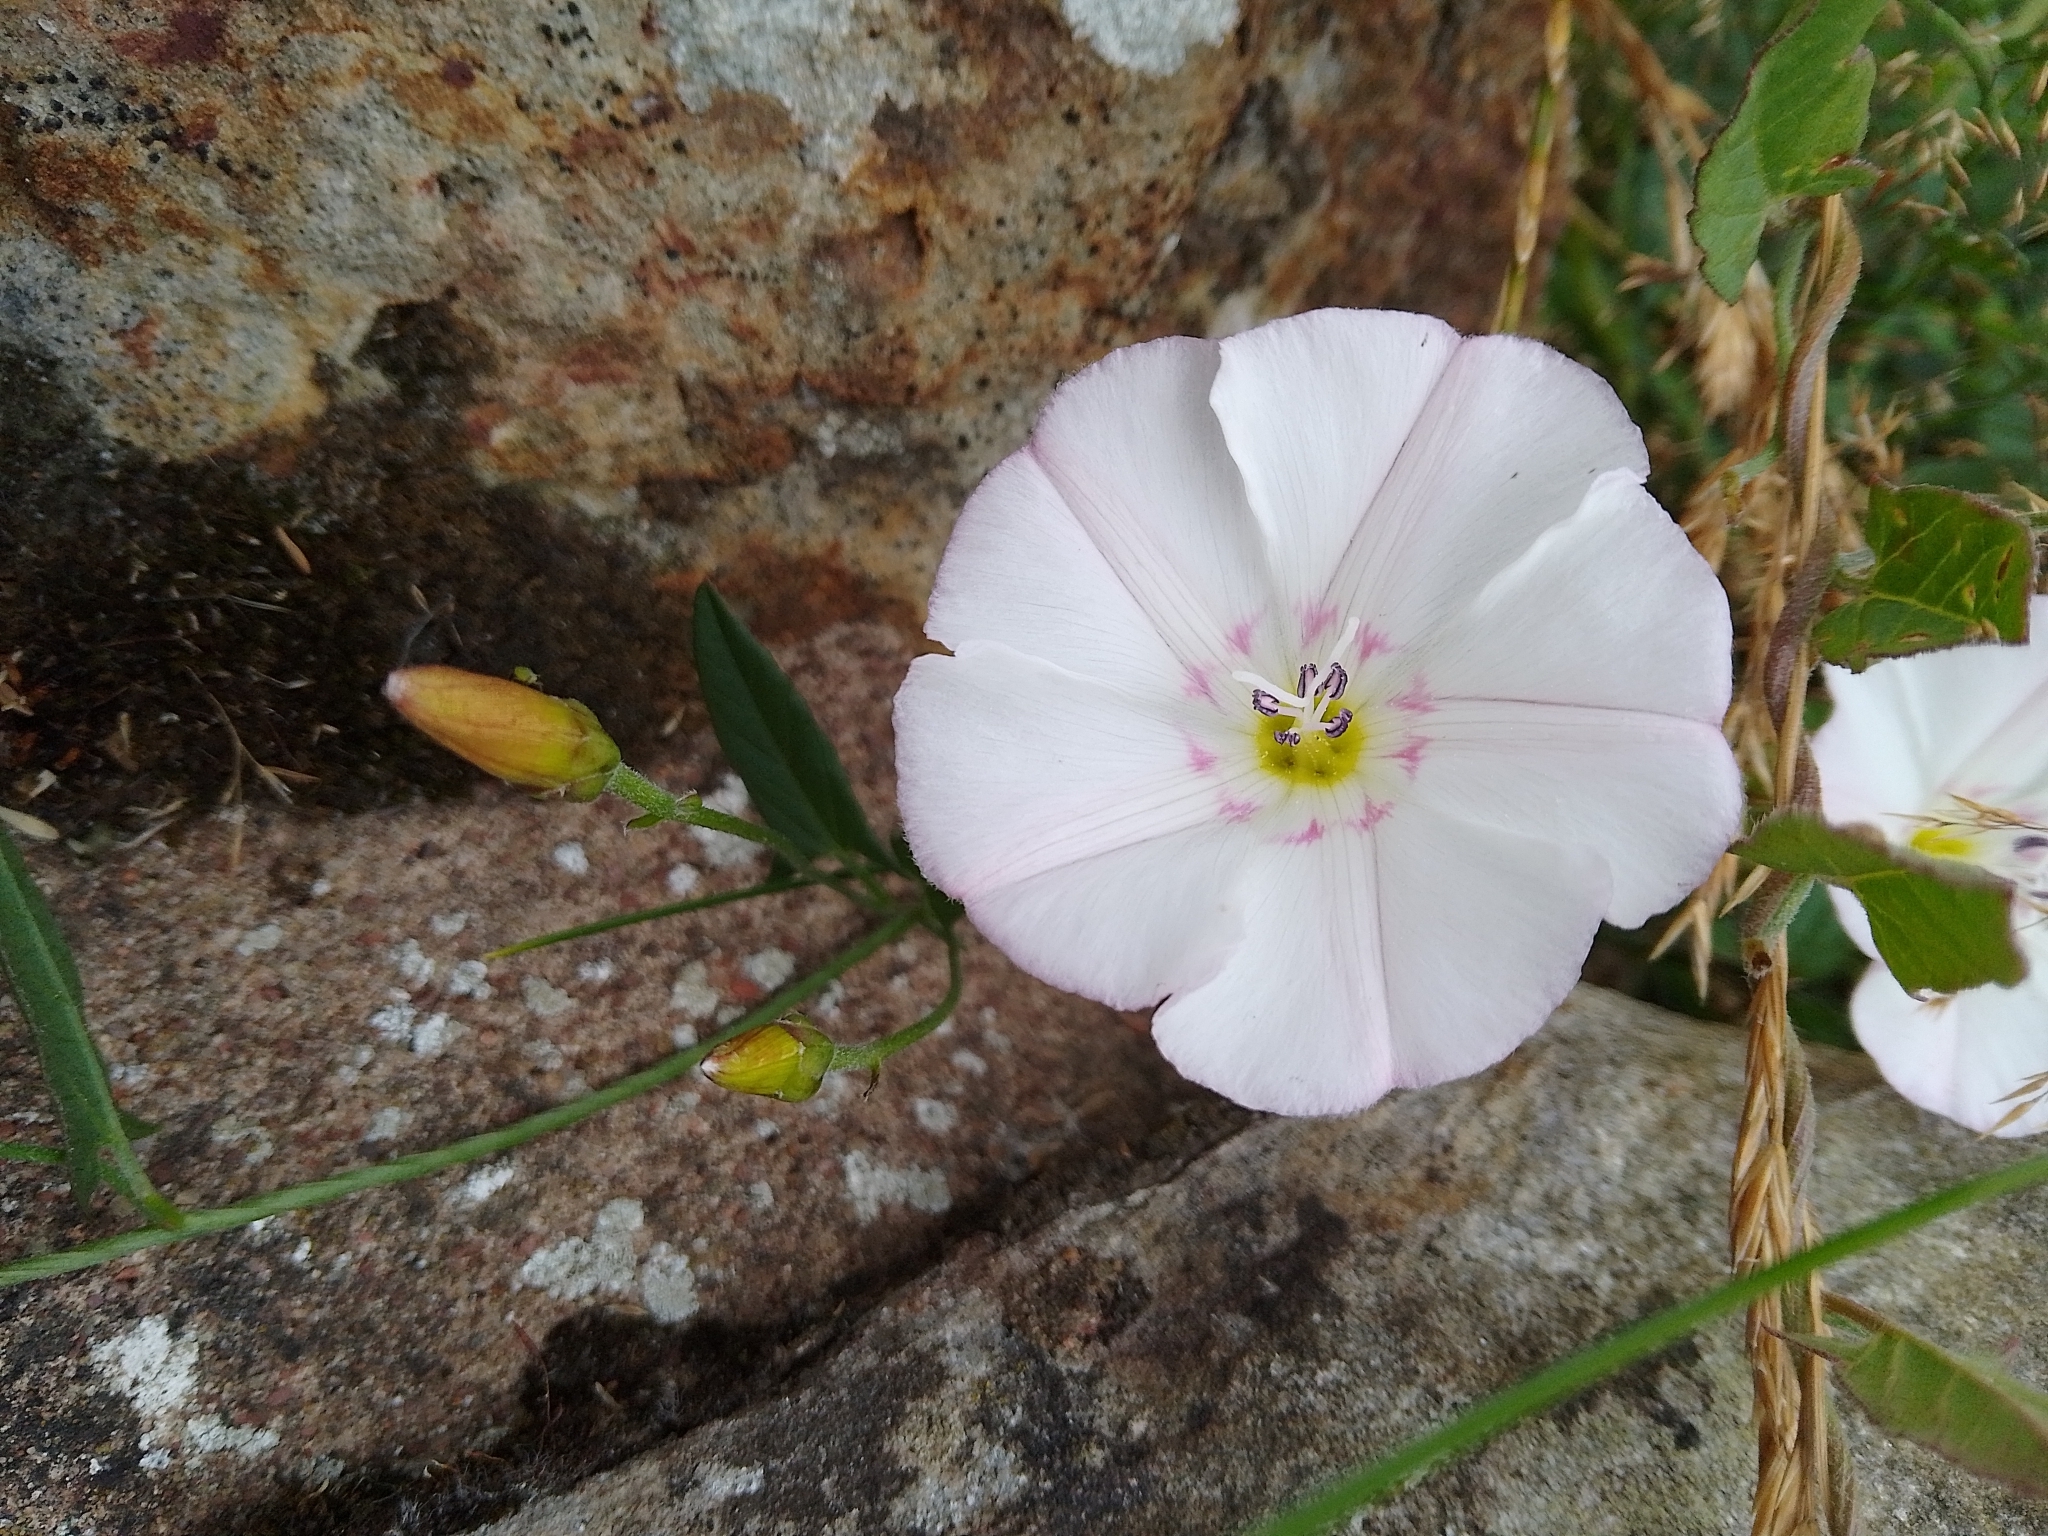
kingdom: Plantae
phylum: Tracheophyta
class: Magnoliopsida
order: Solanales
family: Convolvulaceae
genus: Convolvulus
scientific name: Convolvulus arvensis
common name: Field bindweed
